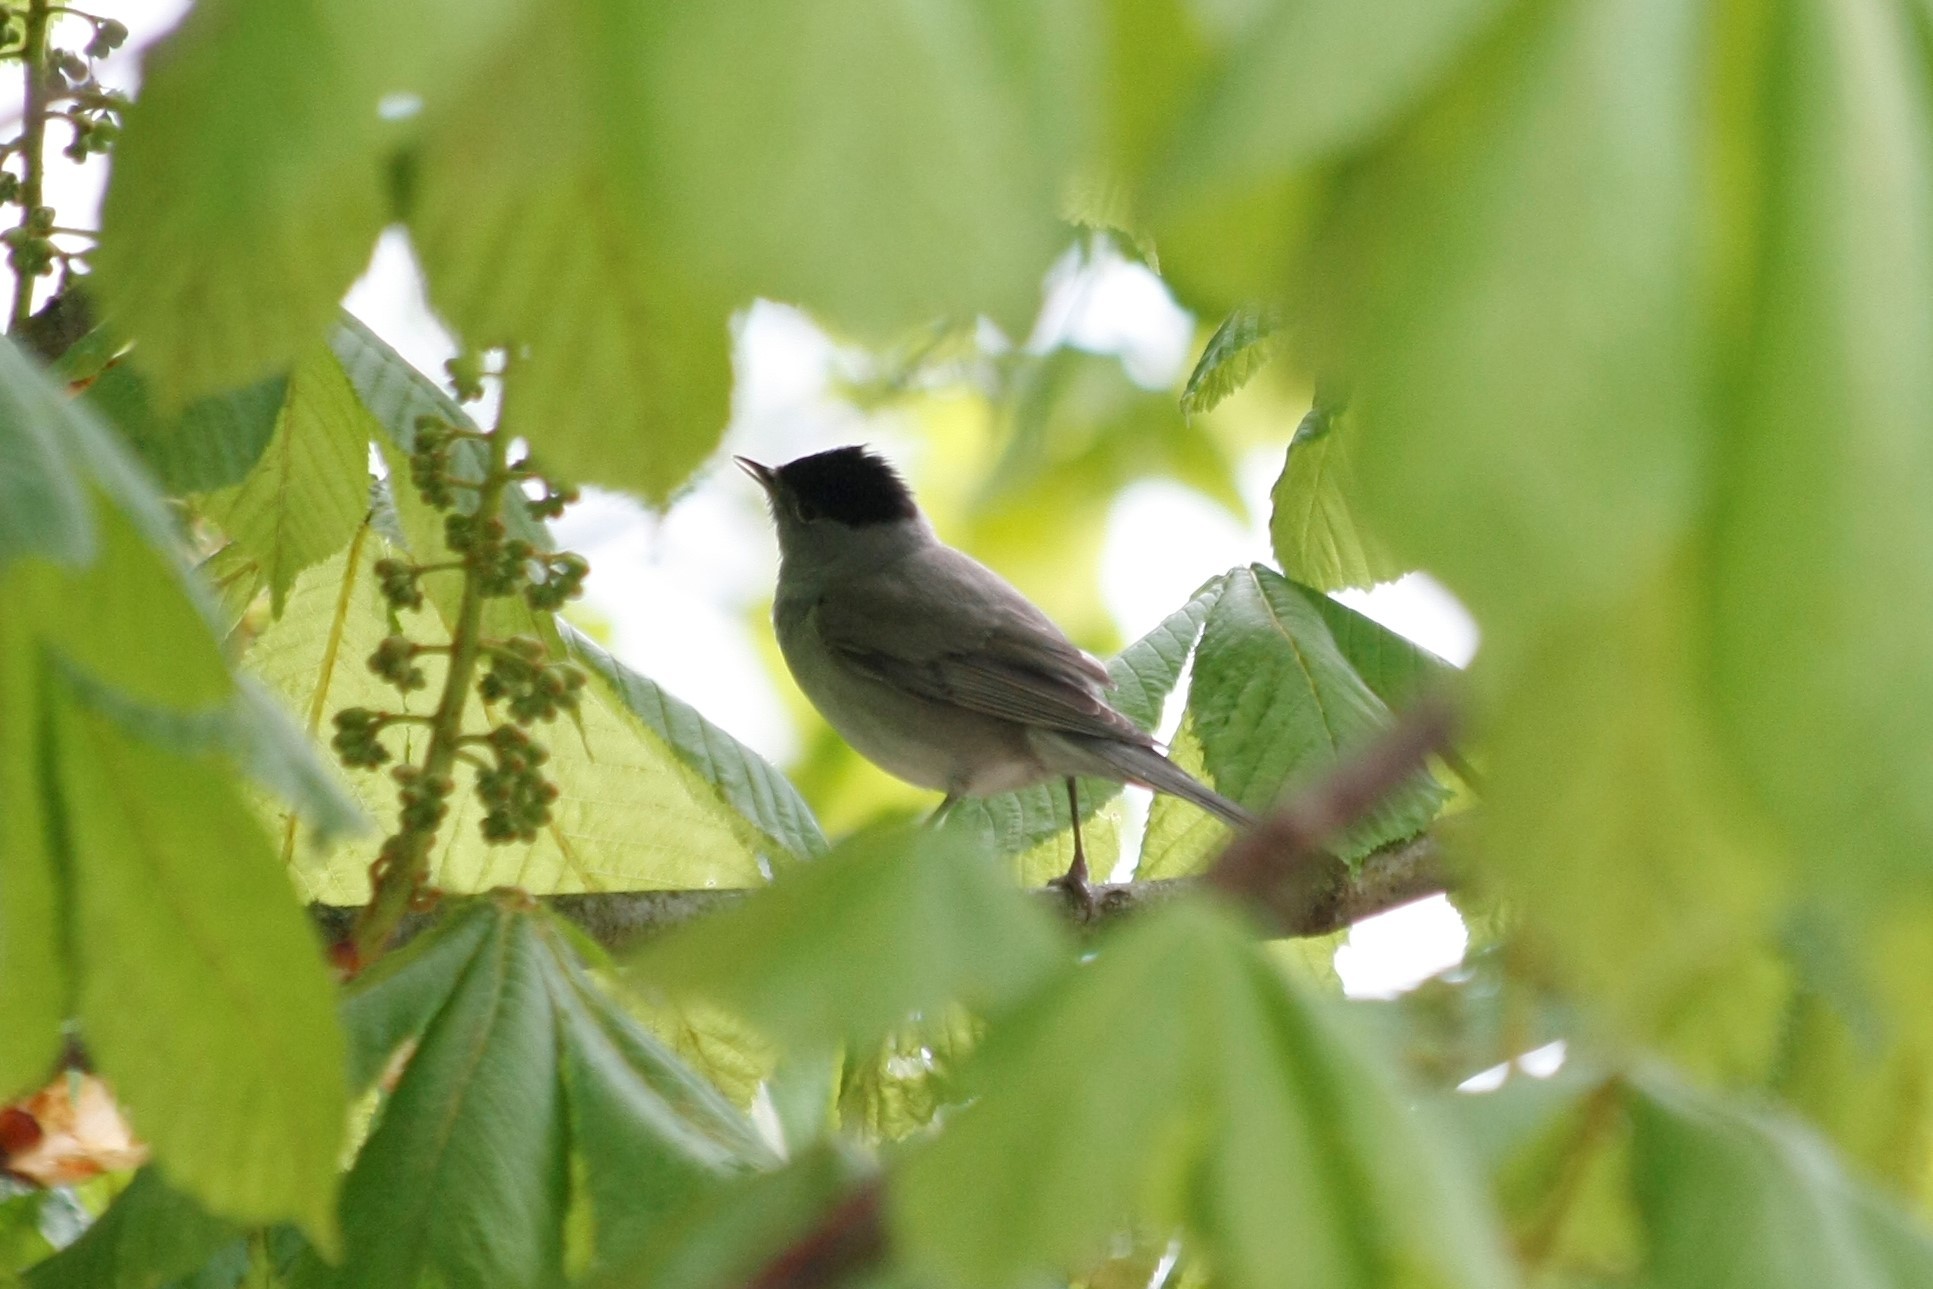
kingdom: Animalia
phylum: Chordata
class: Aves
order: Passeriformes
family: Sylviidae
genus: Sylvia
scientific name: Sylvia atricapilla
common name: Eurasian blackcap
